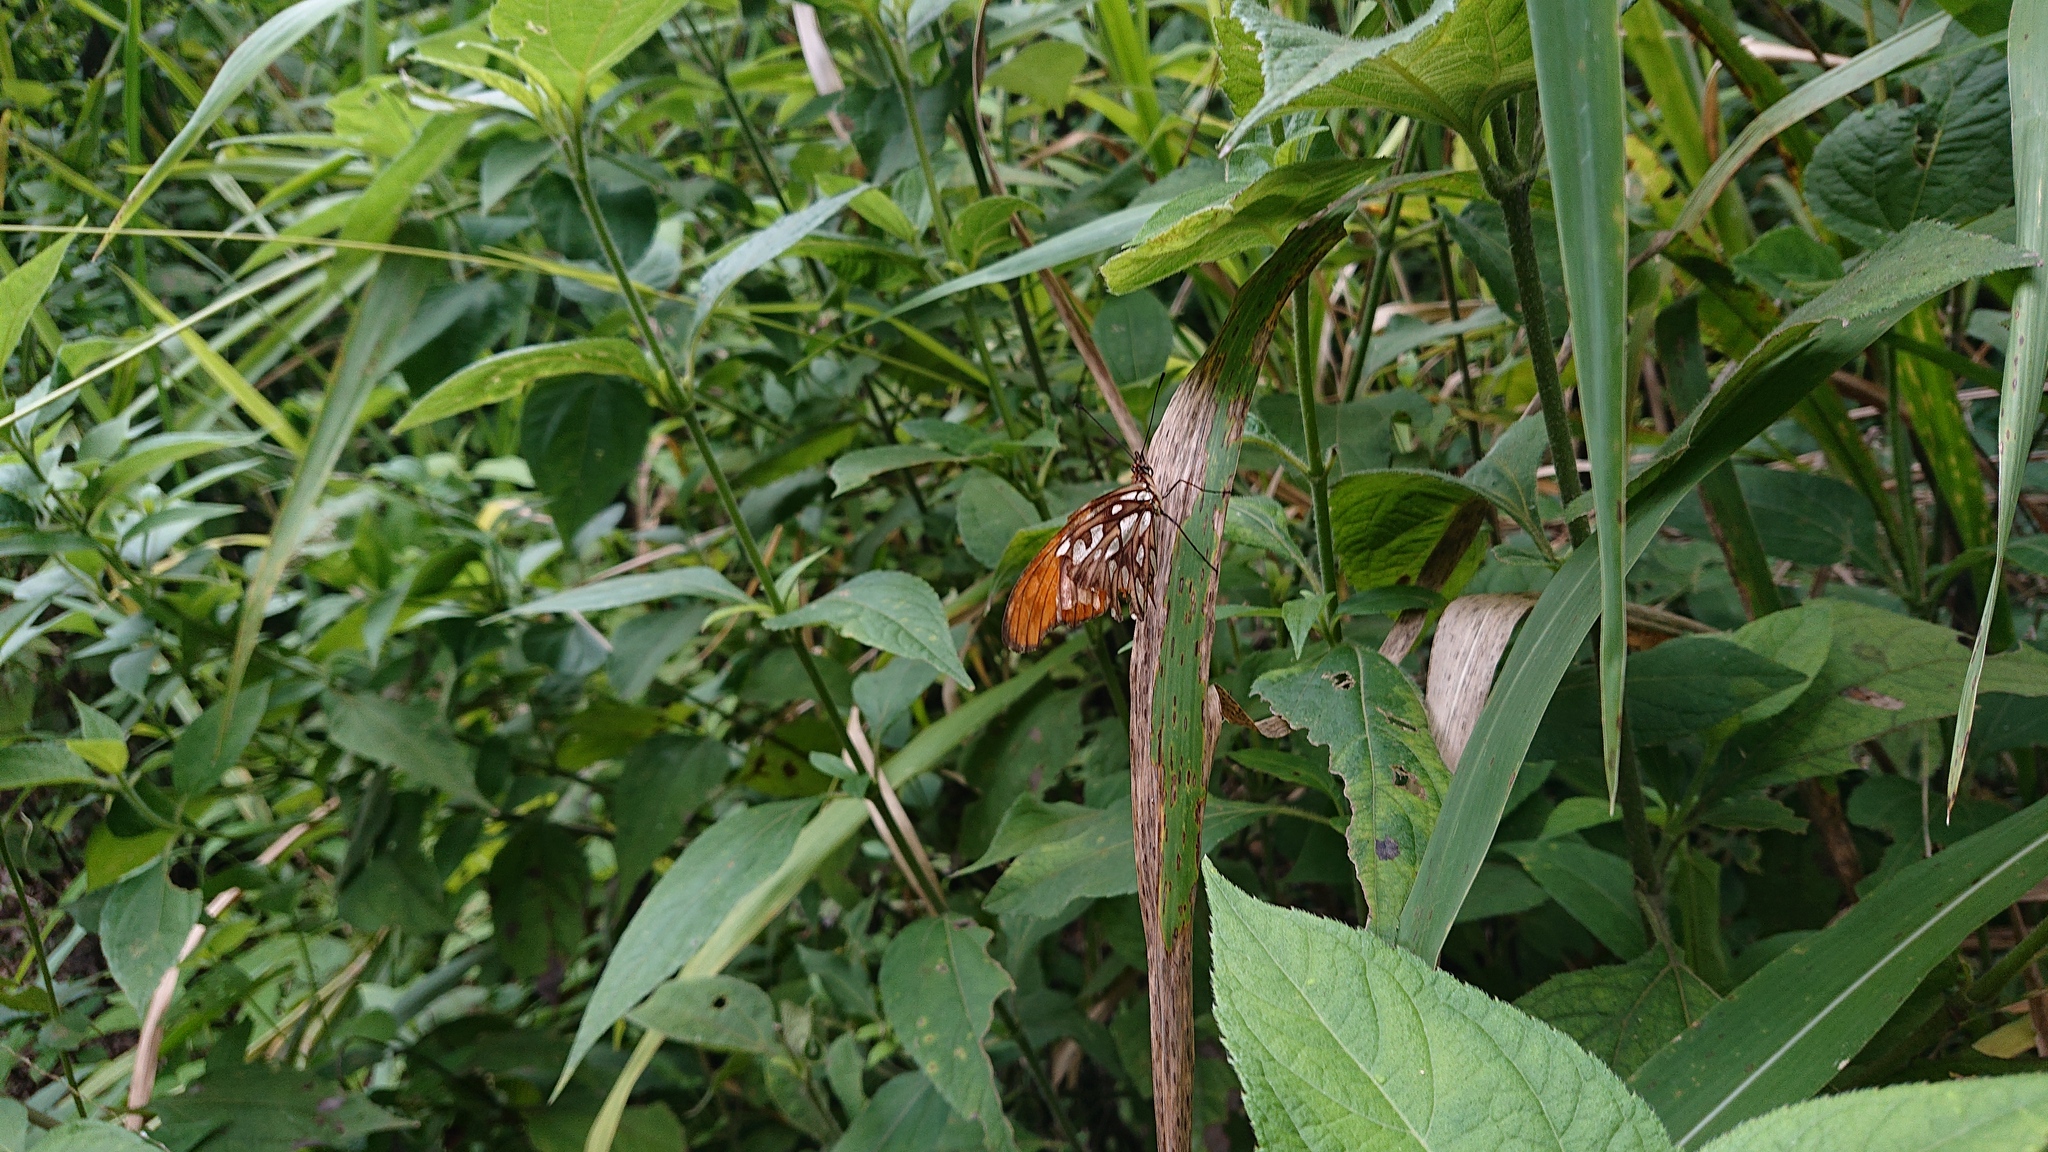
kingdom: Animalia
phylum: Arthropoda
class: Insecta
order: Lepidoptera
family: Nymphalidae
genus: Dione
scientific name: Dione juno
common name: Juno silverspot
